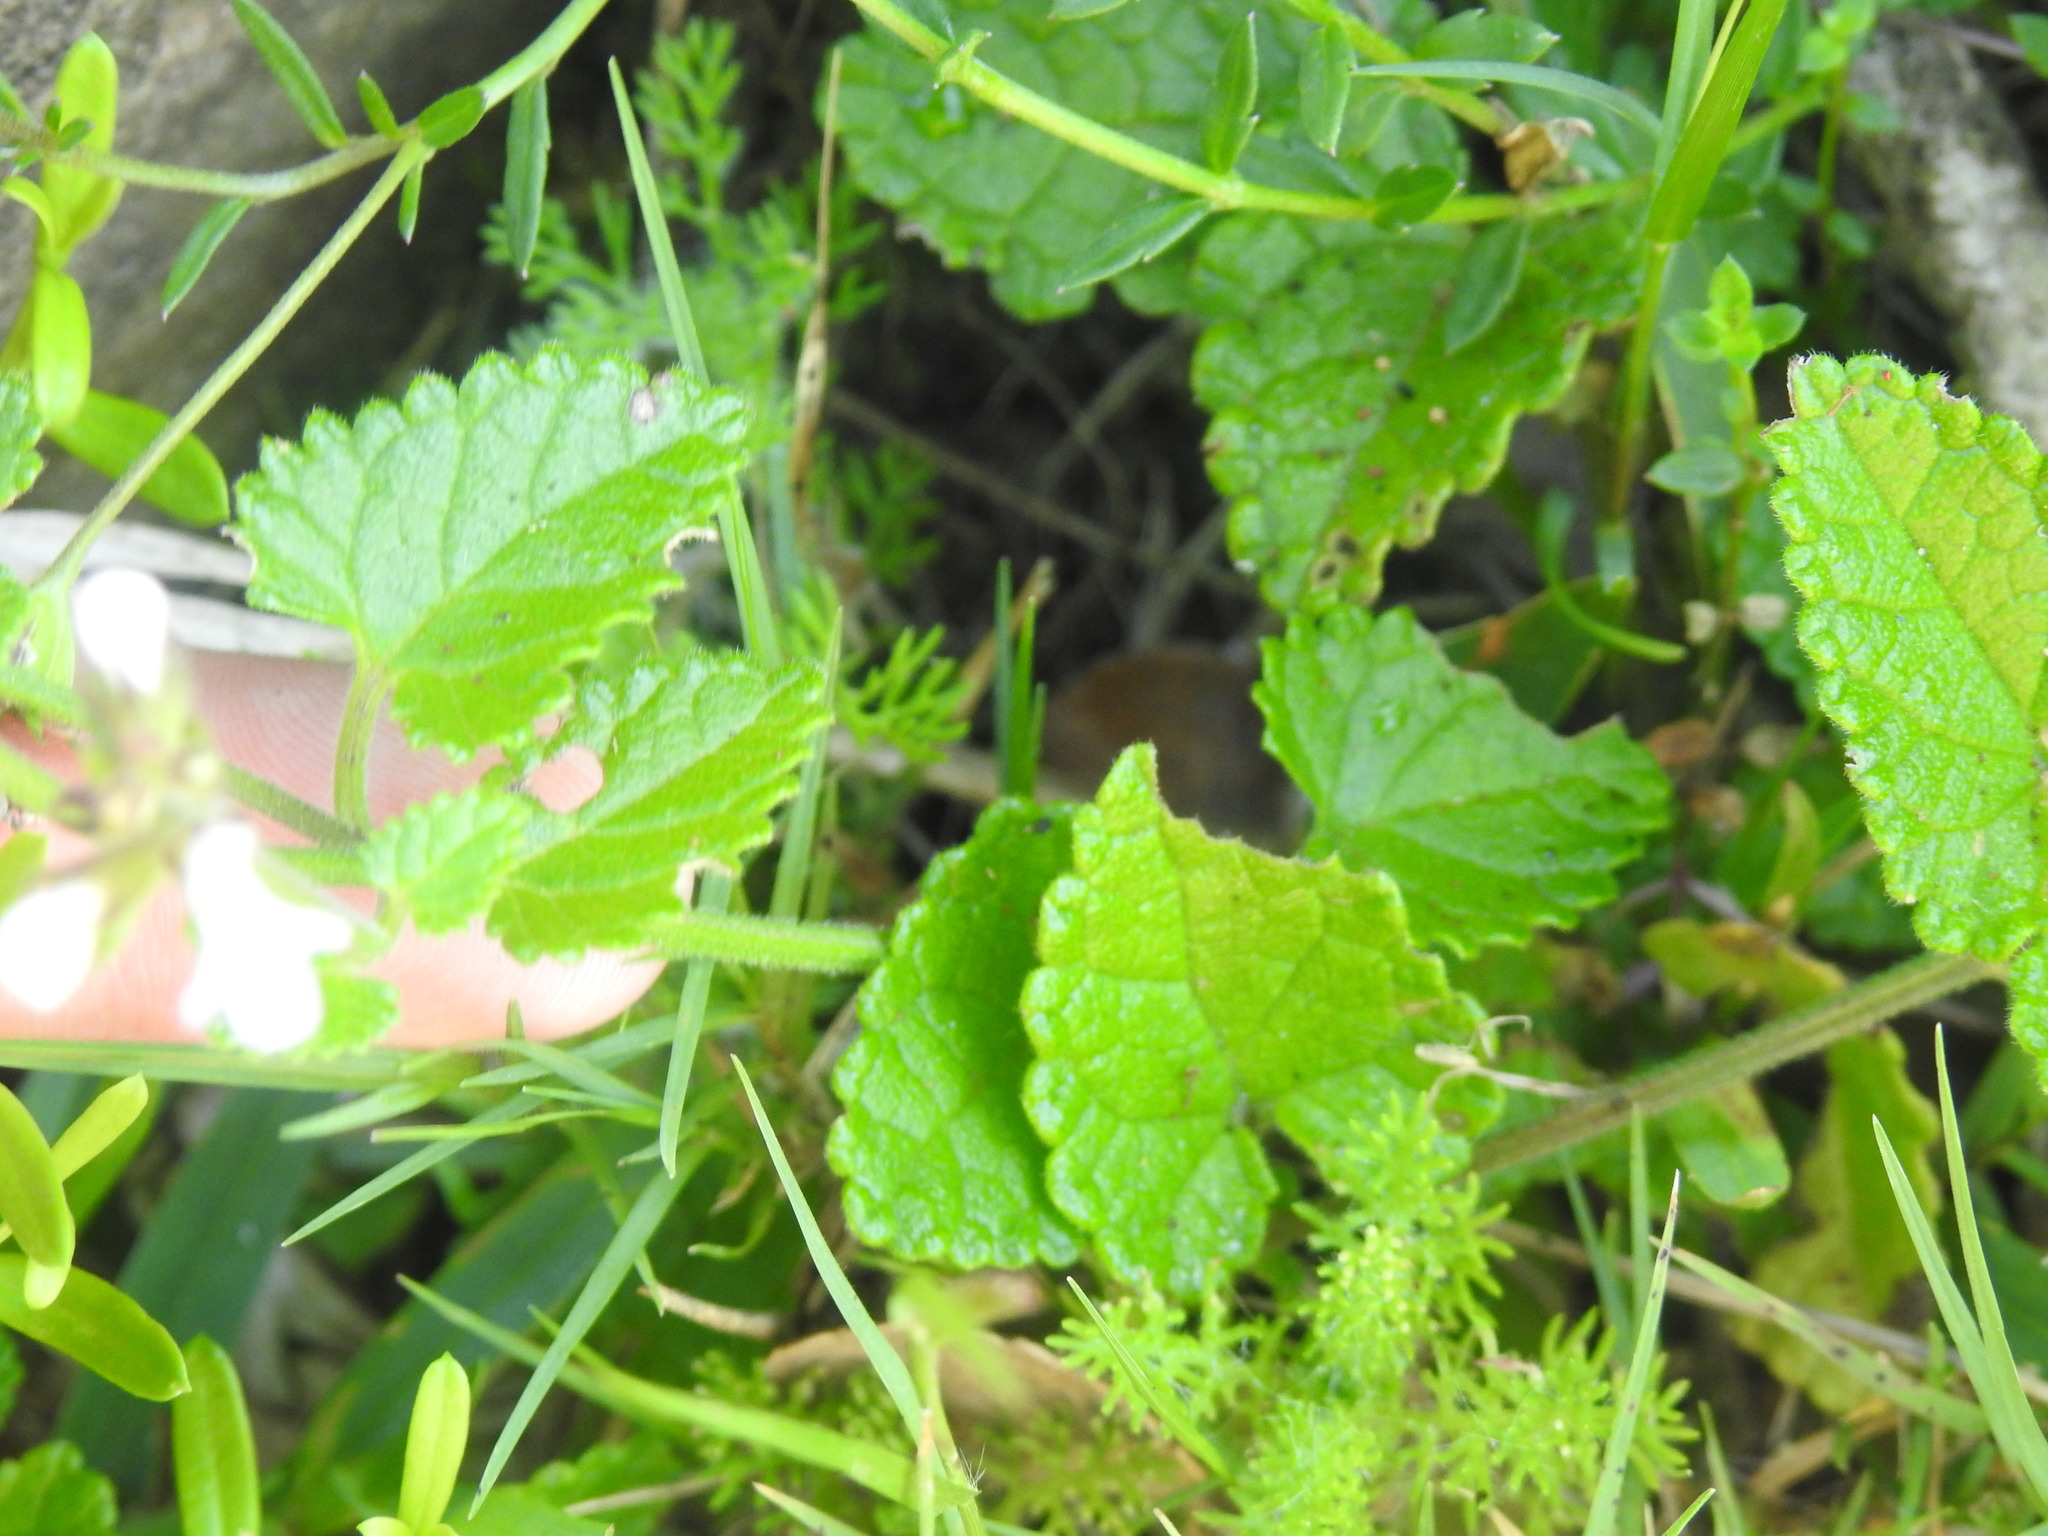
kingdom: Plantae
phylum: Tracheophyta
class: Magnoliopsida
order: Lamiales
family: Lamiaceae
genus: Stachys
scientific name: Stachys aethiopica
